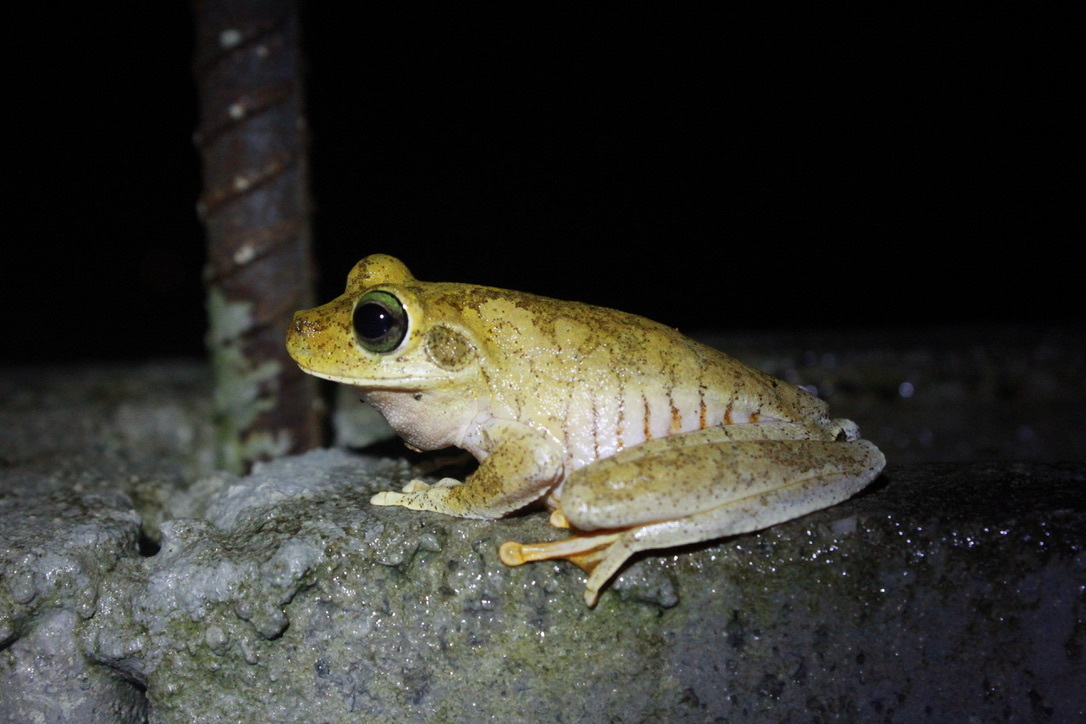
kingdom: Animalia
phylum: Chordata
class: Amphibia
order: Anura
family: Hylidae
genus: Boana
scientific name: Boana platanera
